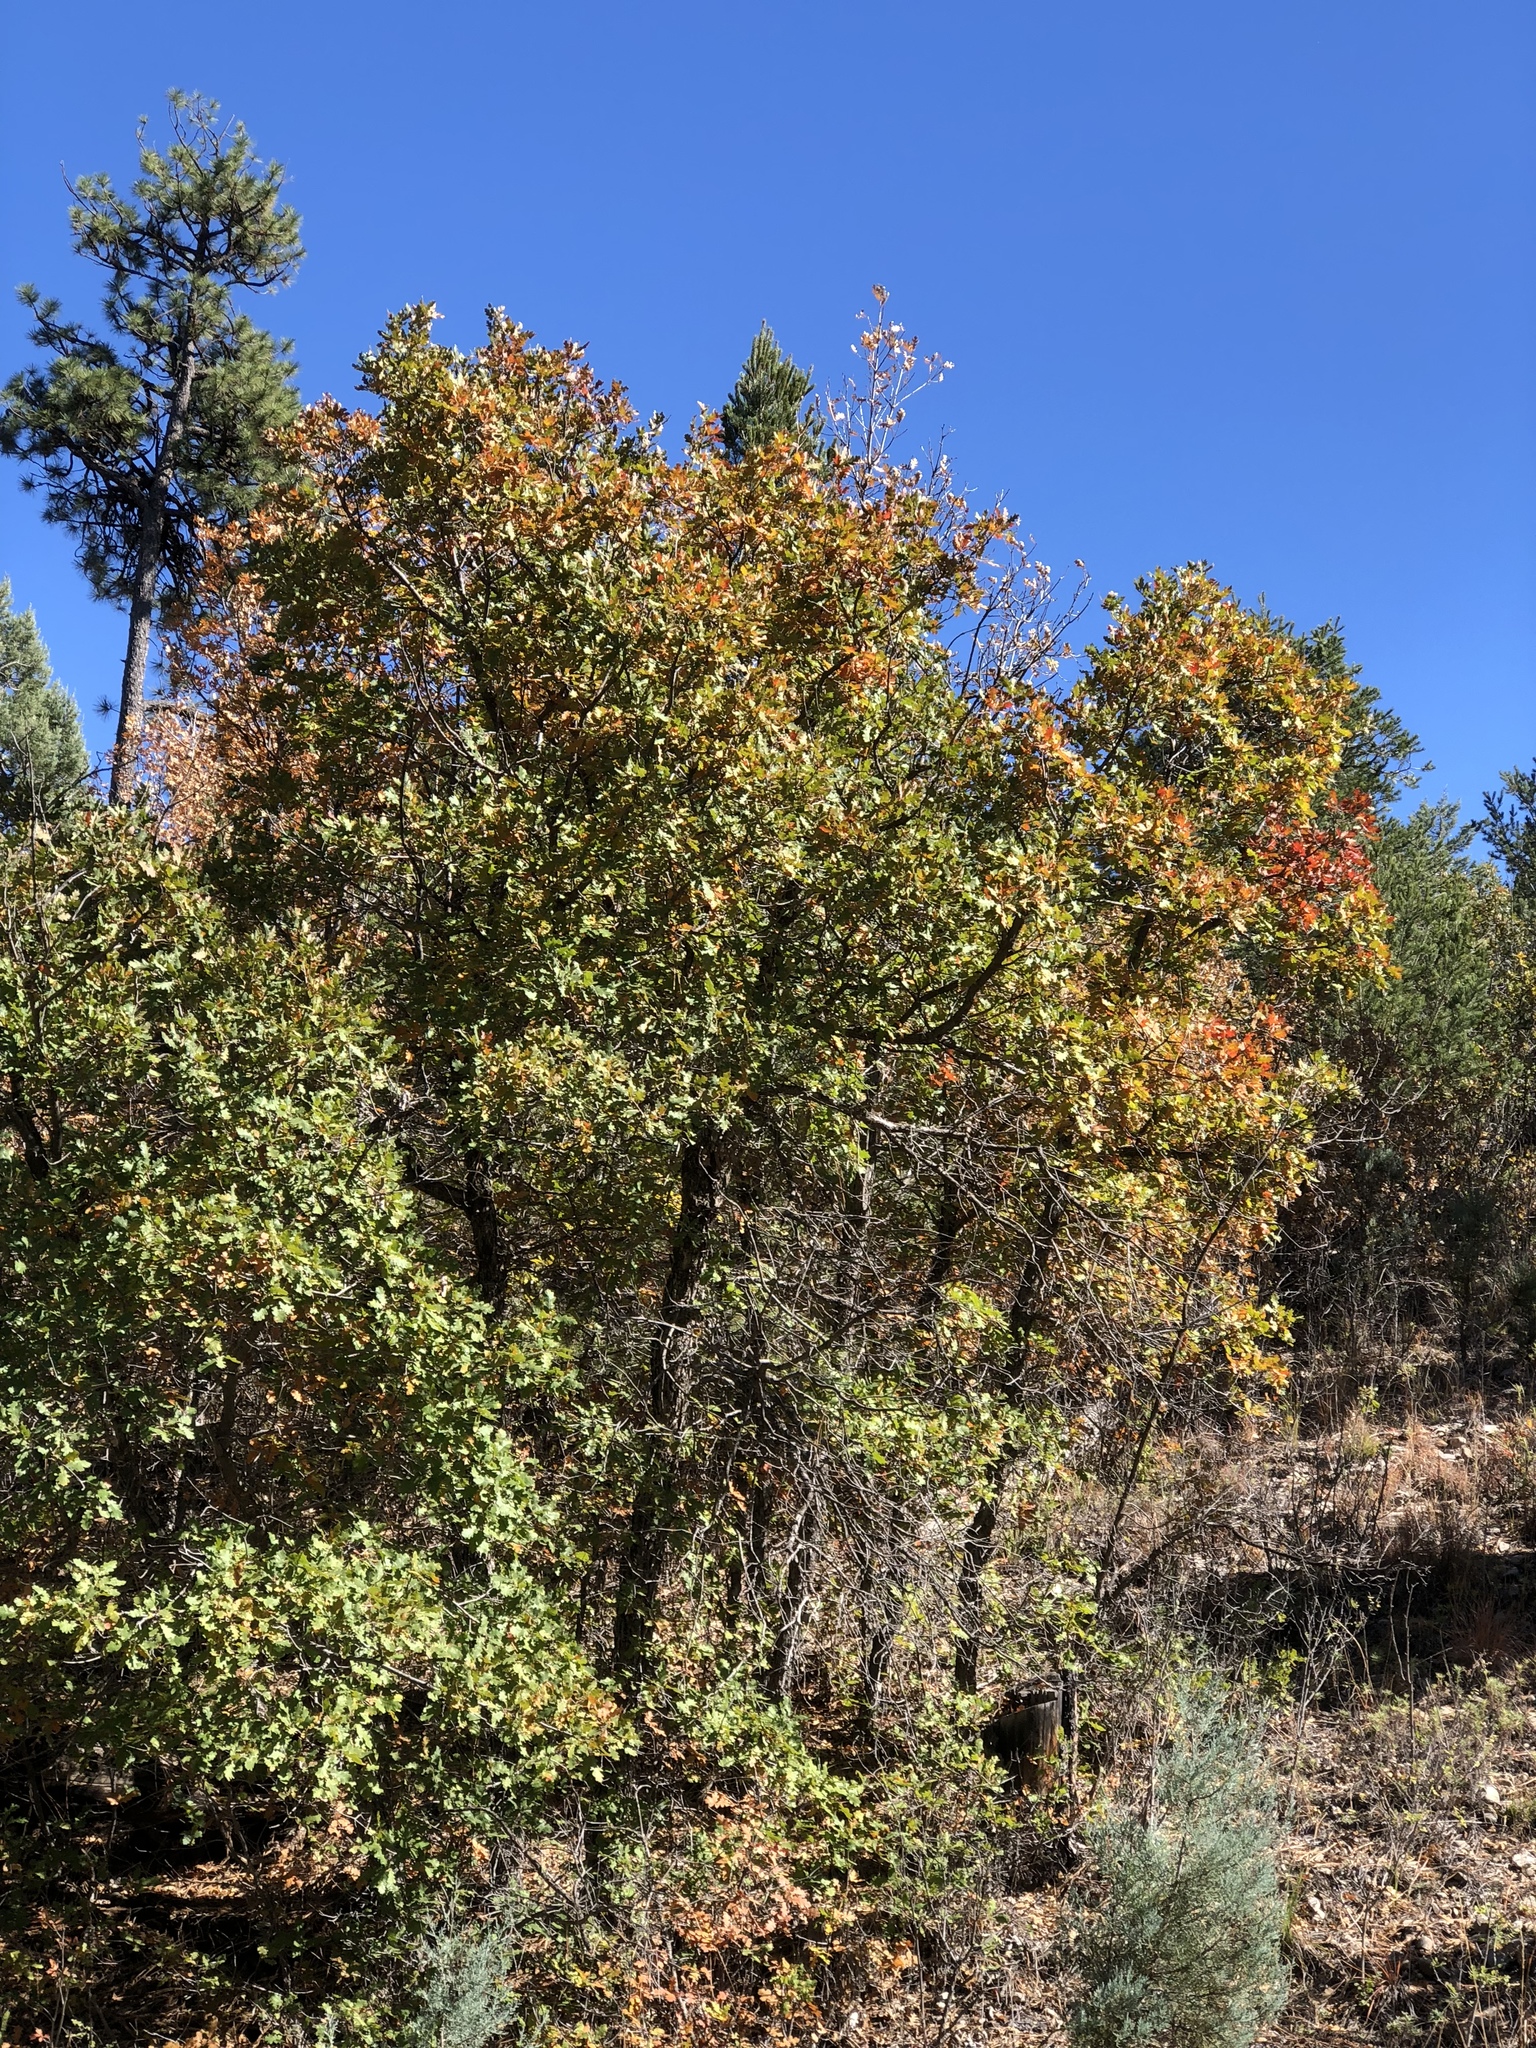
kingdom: Plantae
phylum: Tracheophyta
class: Magnoliopsida
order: Fagales
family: Fagaceae
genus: Quercus
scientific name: Quercus gambelii
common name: Gambel oak
